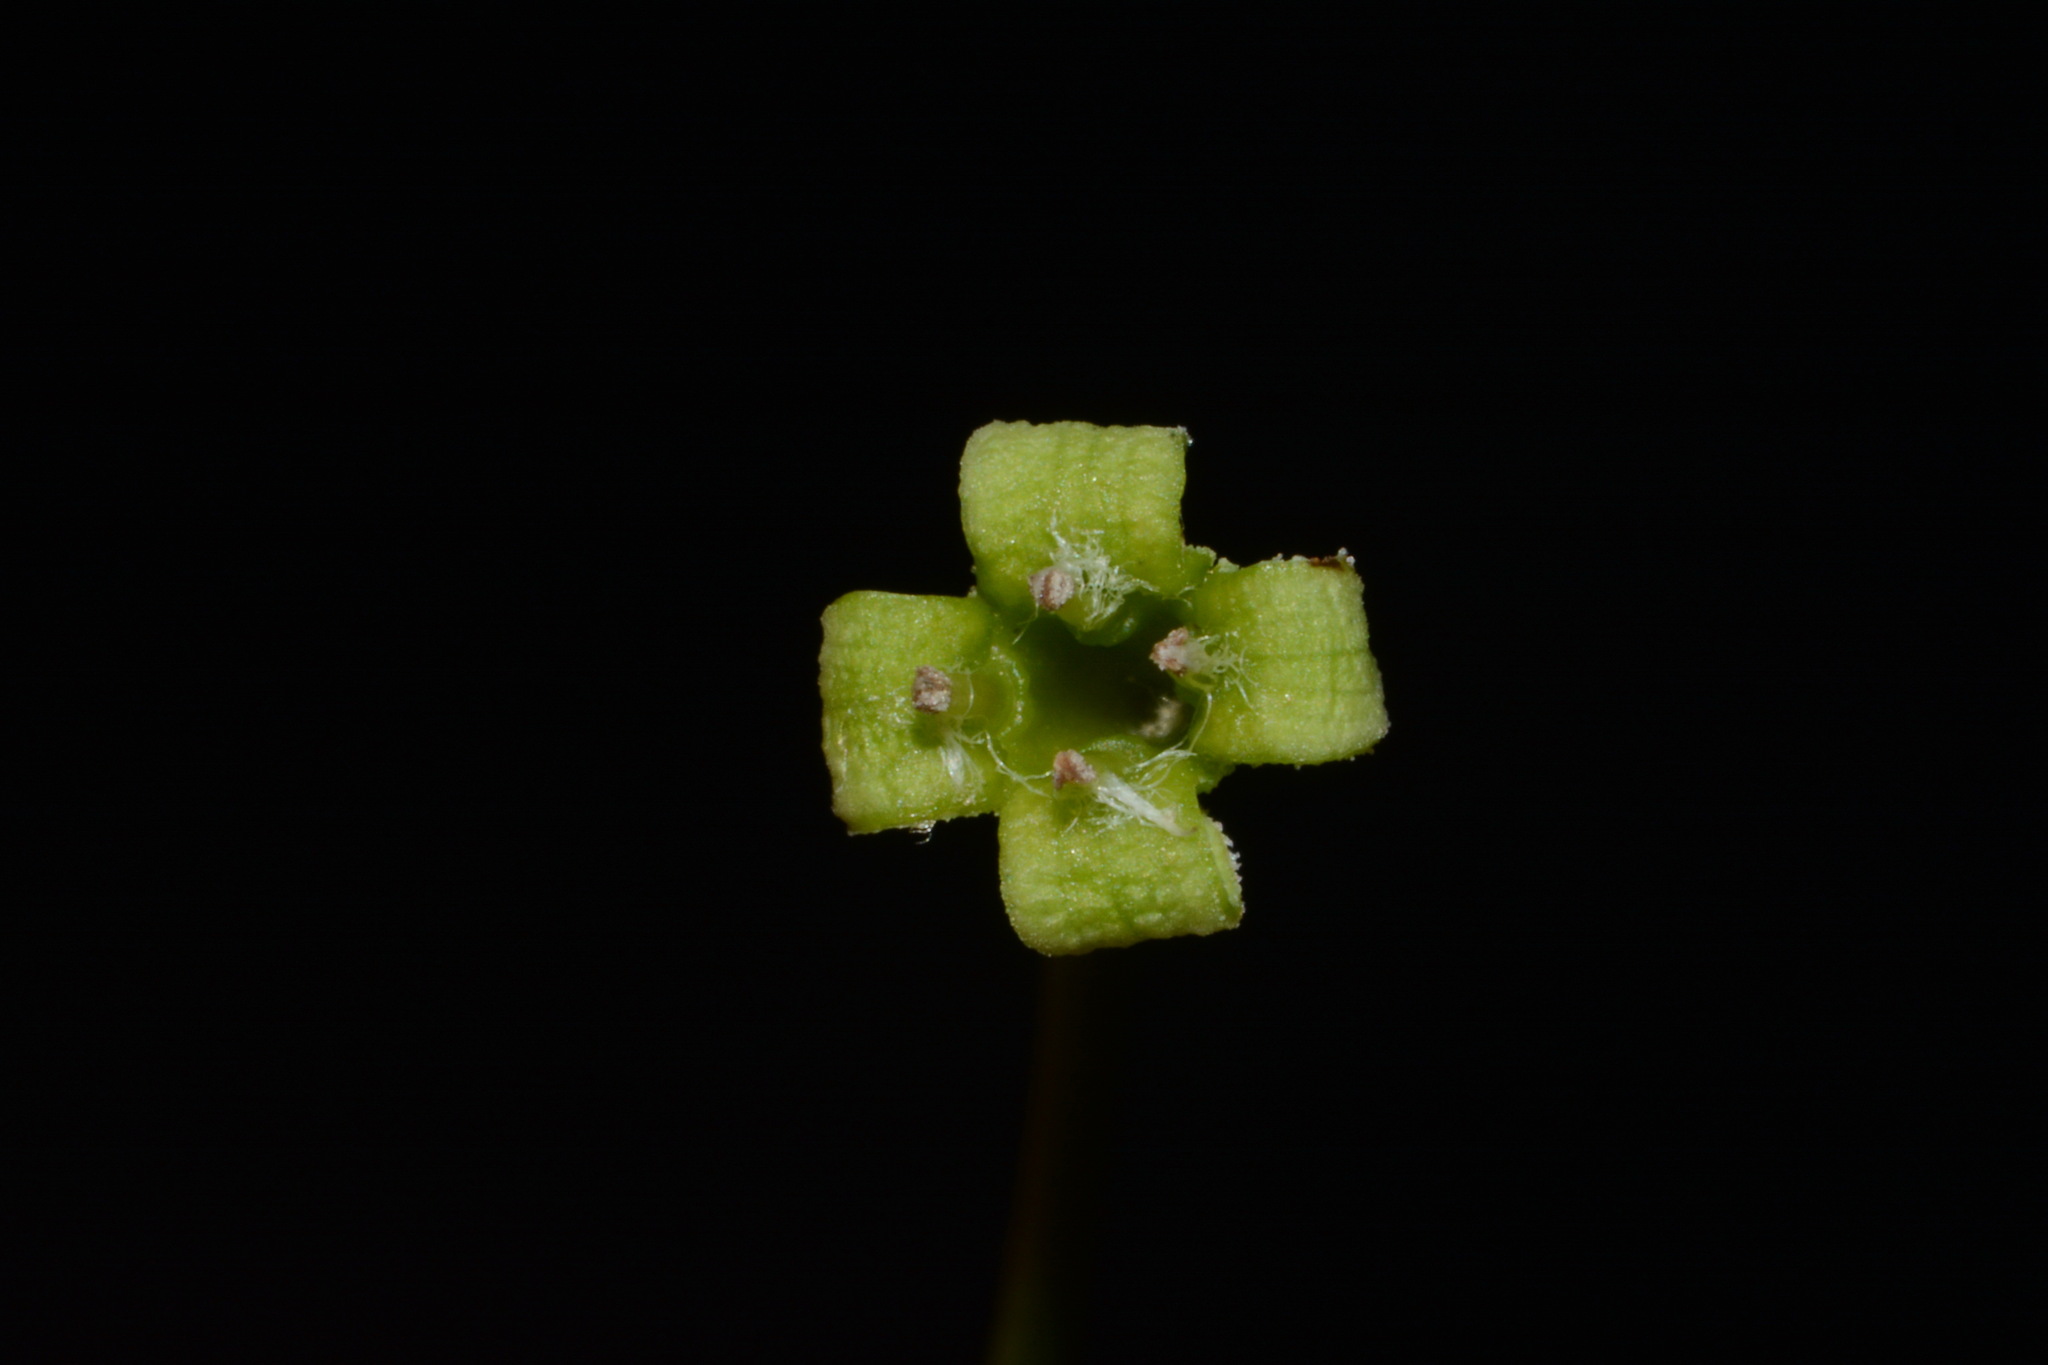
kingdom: Plantae
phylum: Tracheophyta
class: Magnoliopsida
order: Santalales
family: Santalaceae
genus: Nestronia
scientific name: Nestronia umbellula
